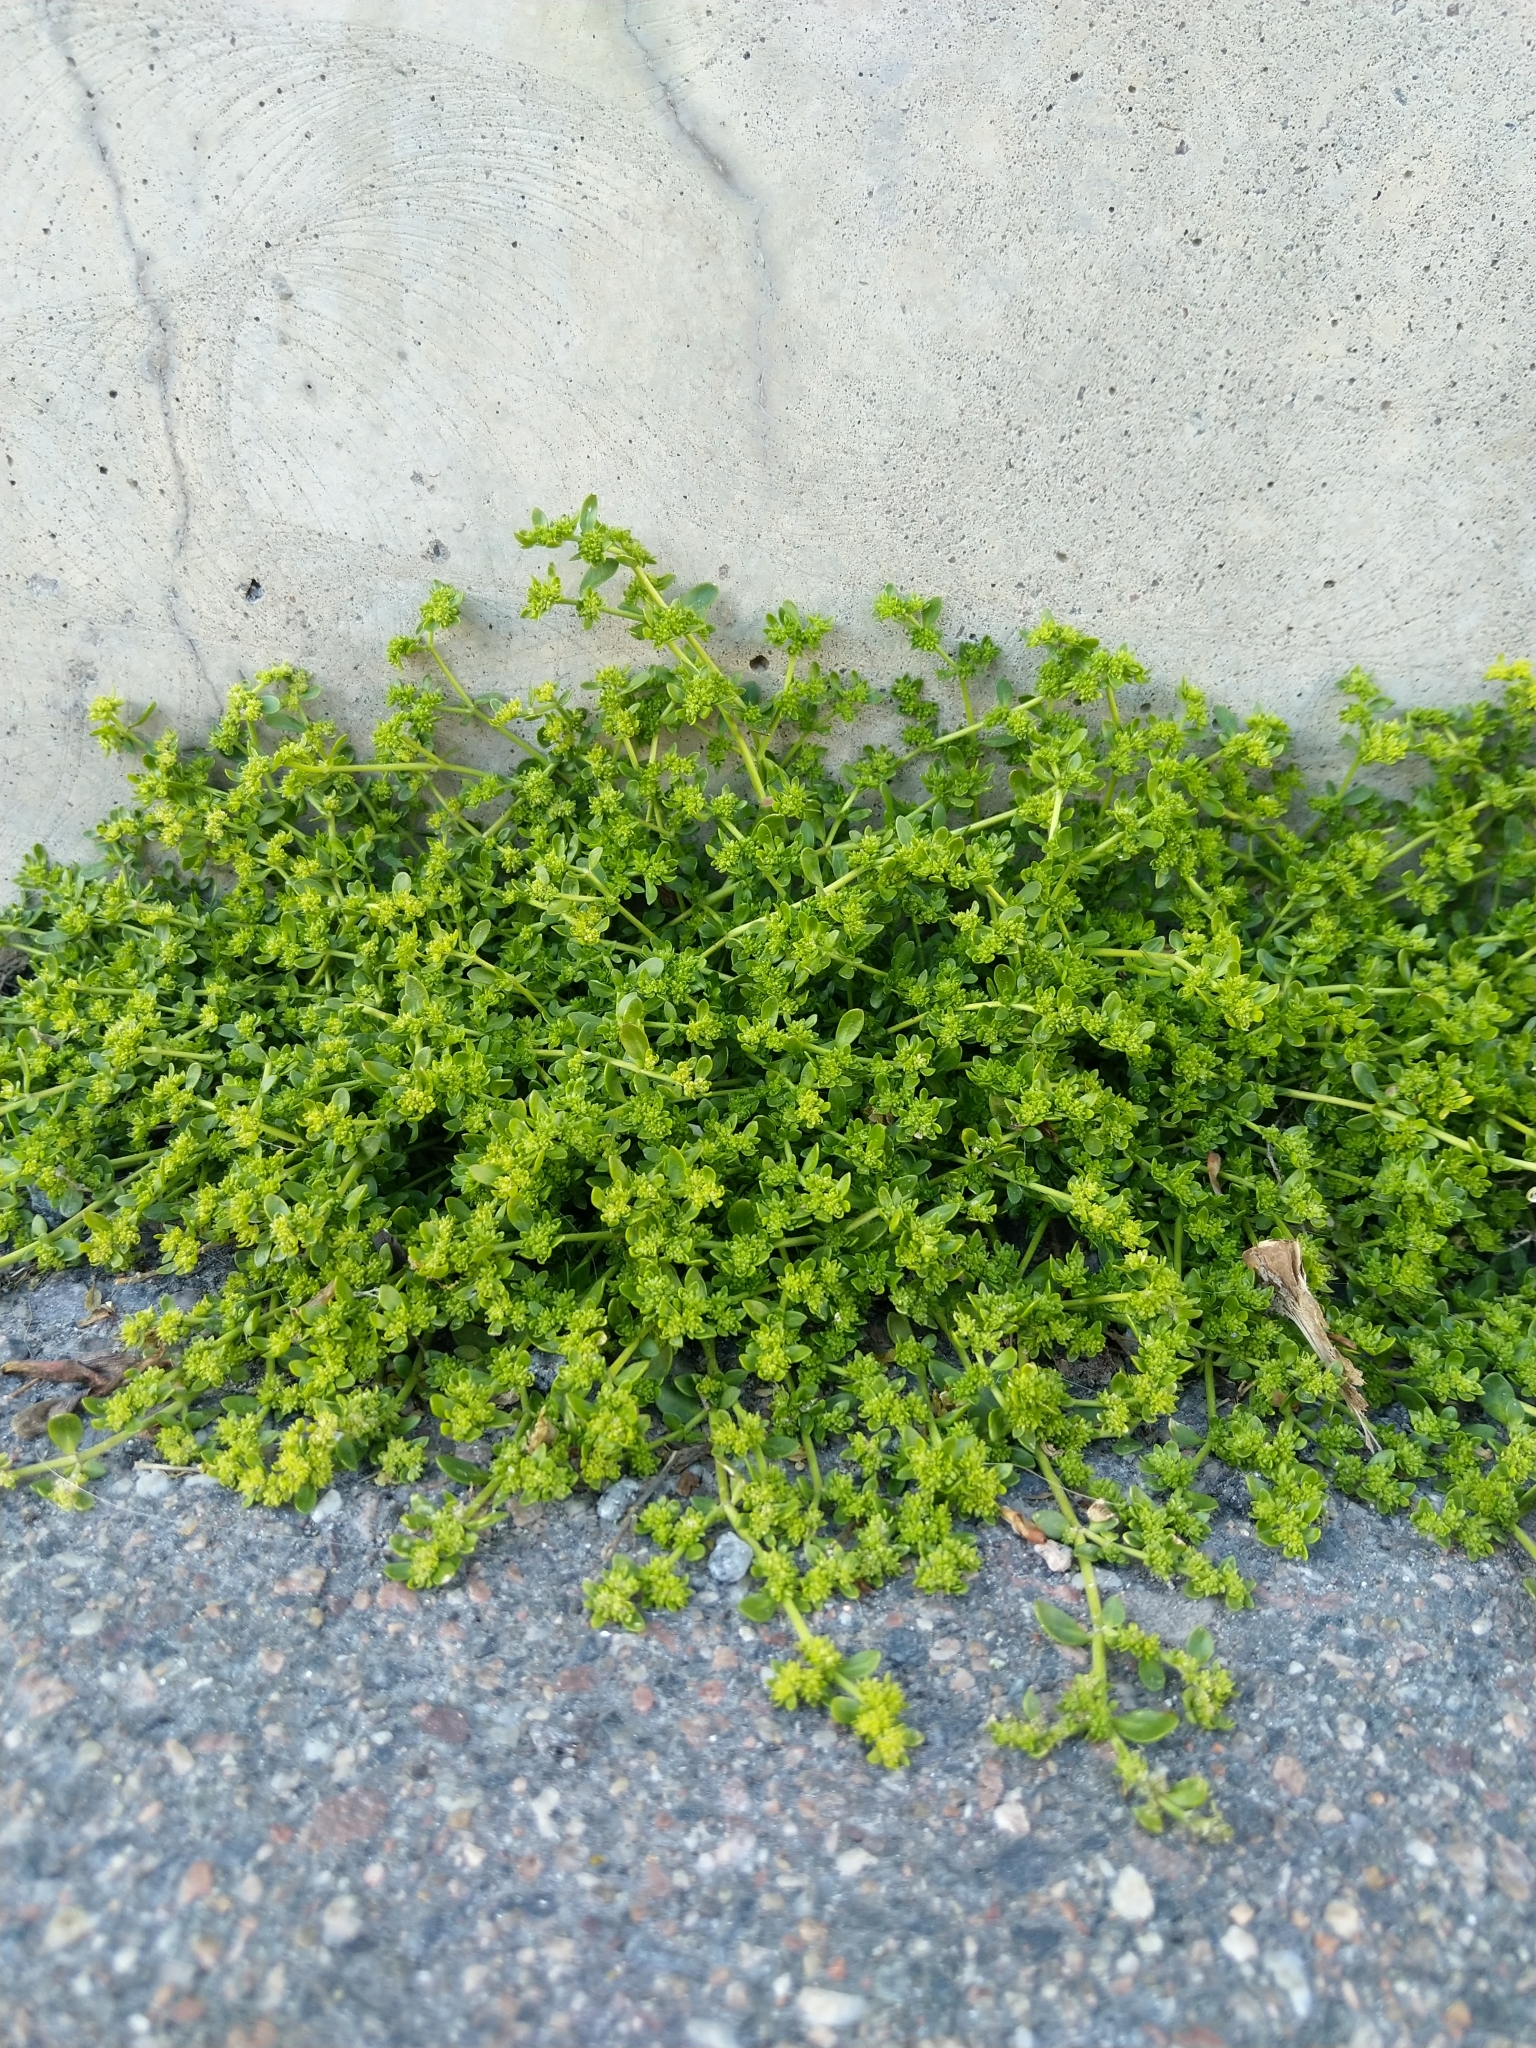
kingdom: Plantae
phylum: Tracheophyta
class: Magnoliopsida
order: Caryophyllales
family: Caryophyllaceae
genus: Herniaria
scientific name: Herniaria glabra
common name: Smooth rupturewort
